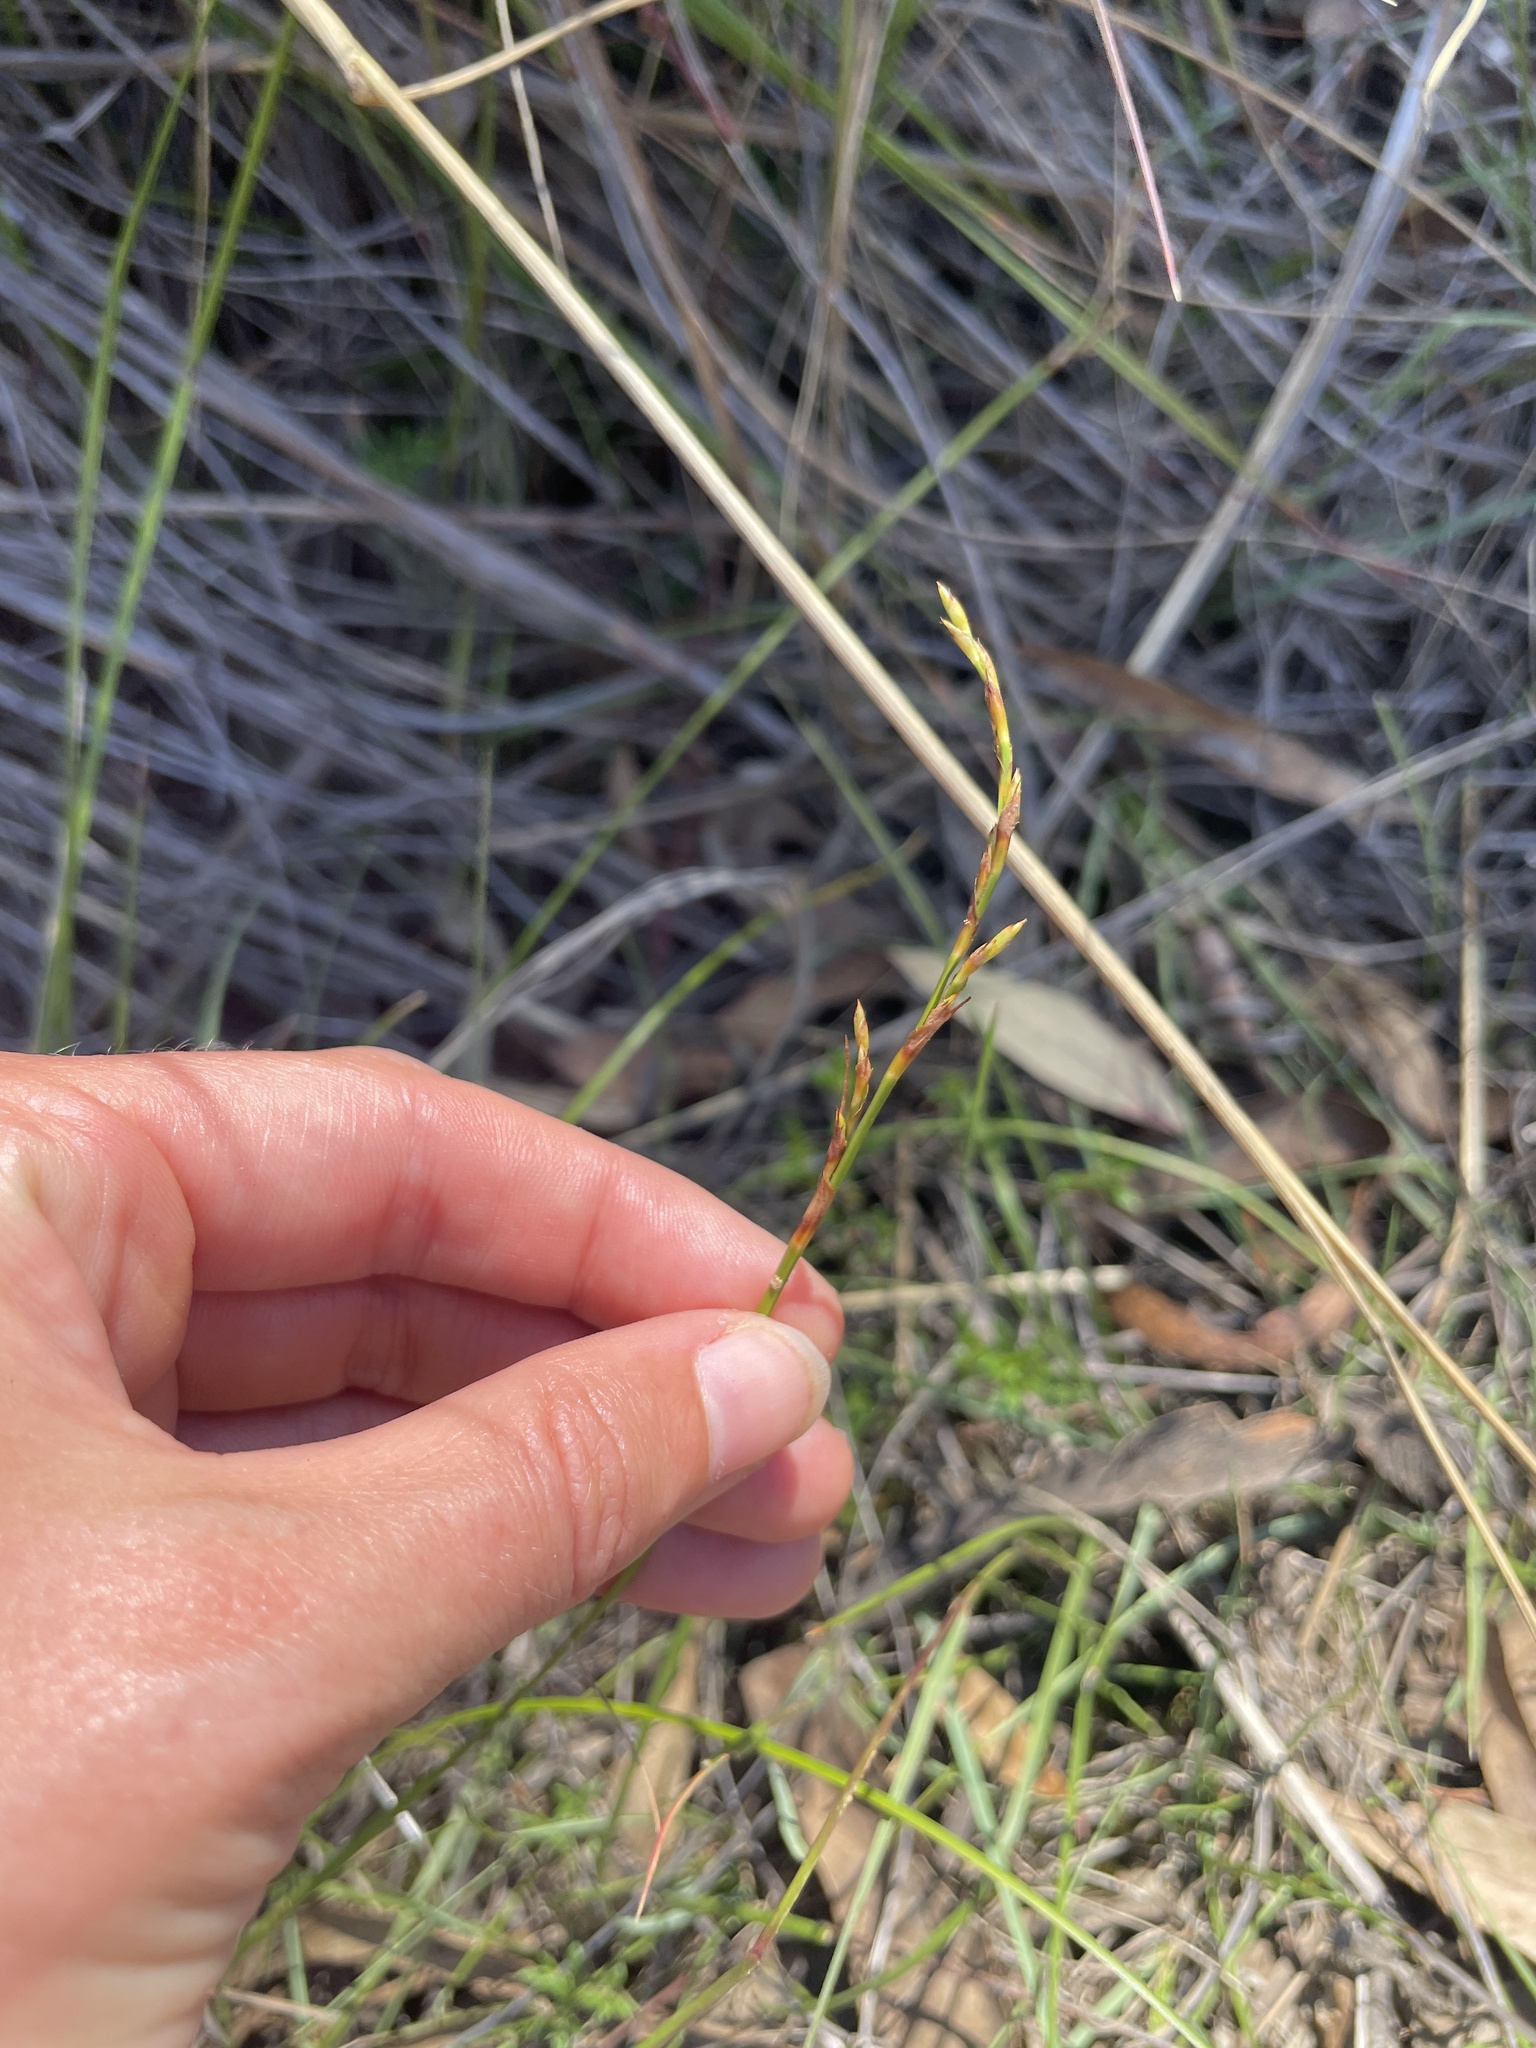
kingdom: Plantae
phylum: Tracheophyta
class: Liliopsida
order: Poales
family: Cyperaceae
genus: Lepidosperma
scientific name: Lepidosperma laterale
